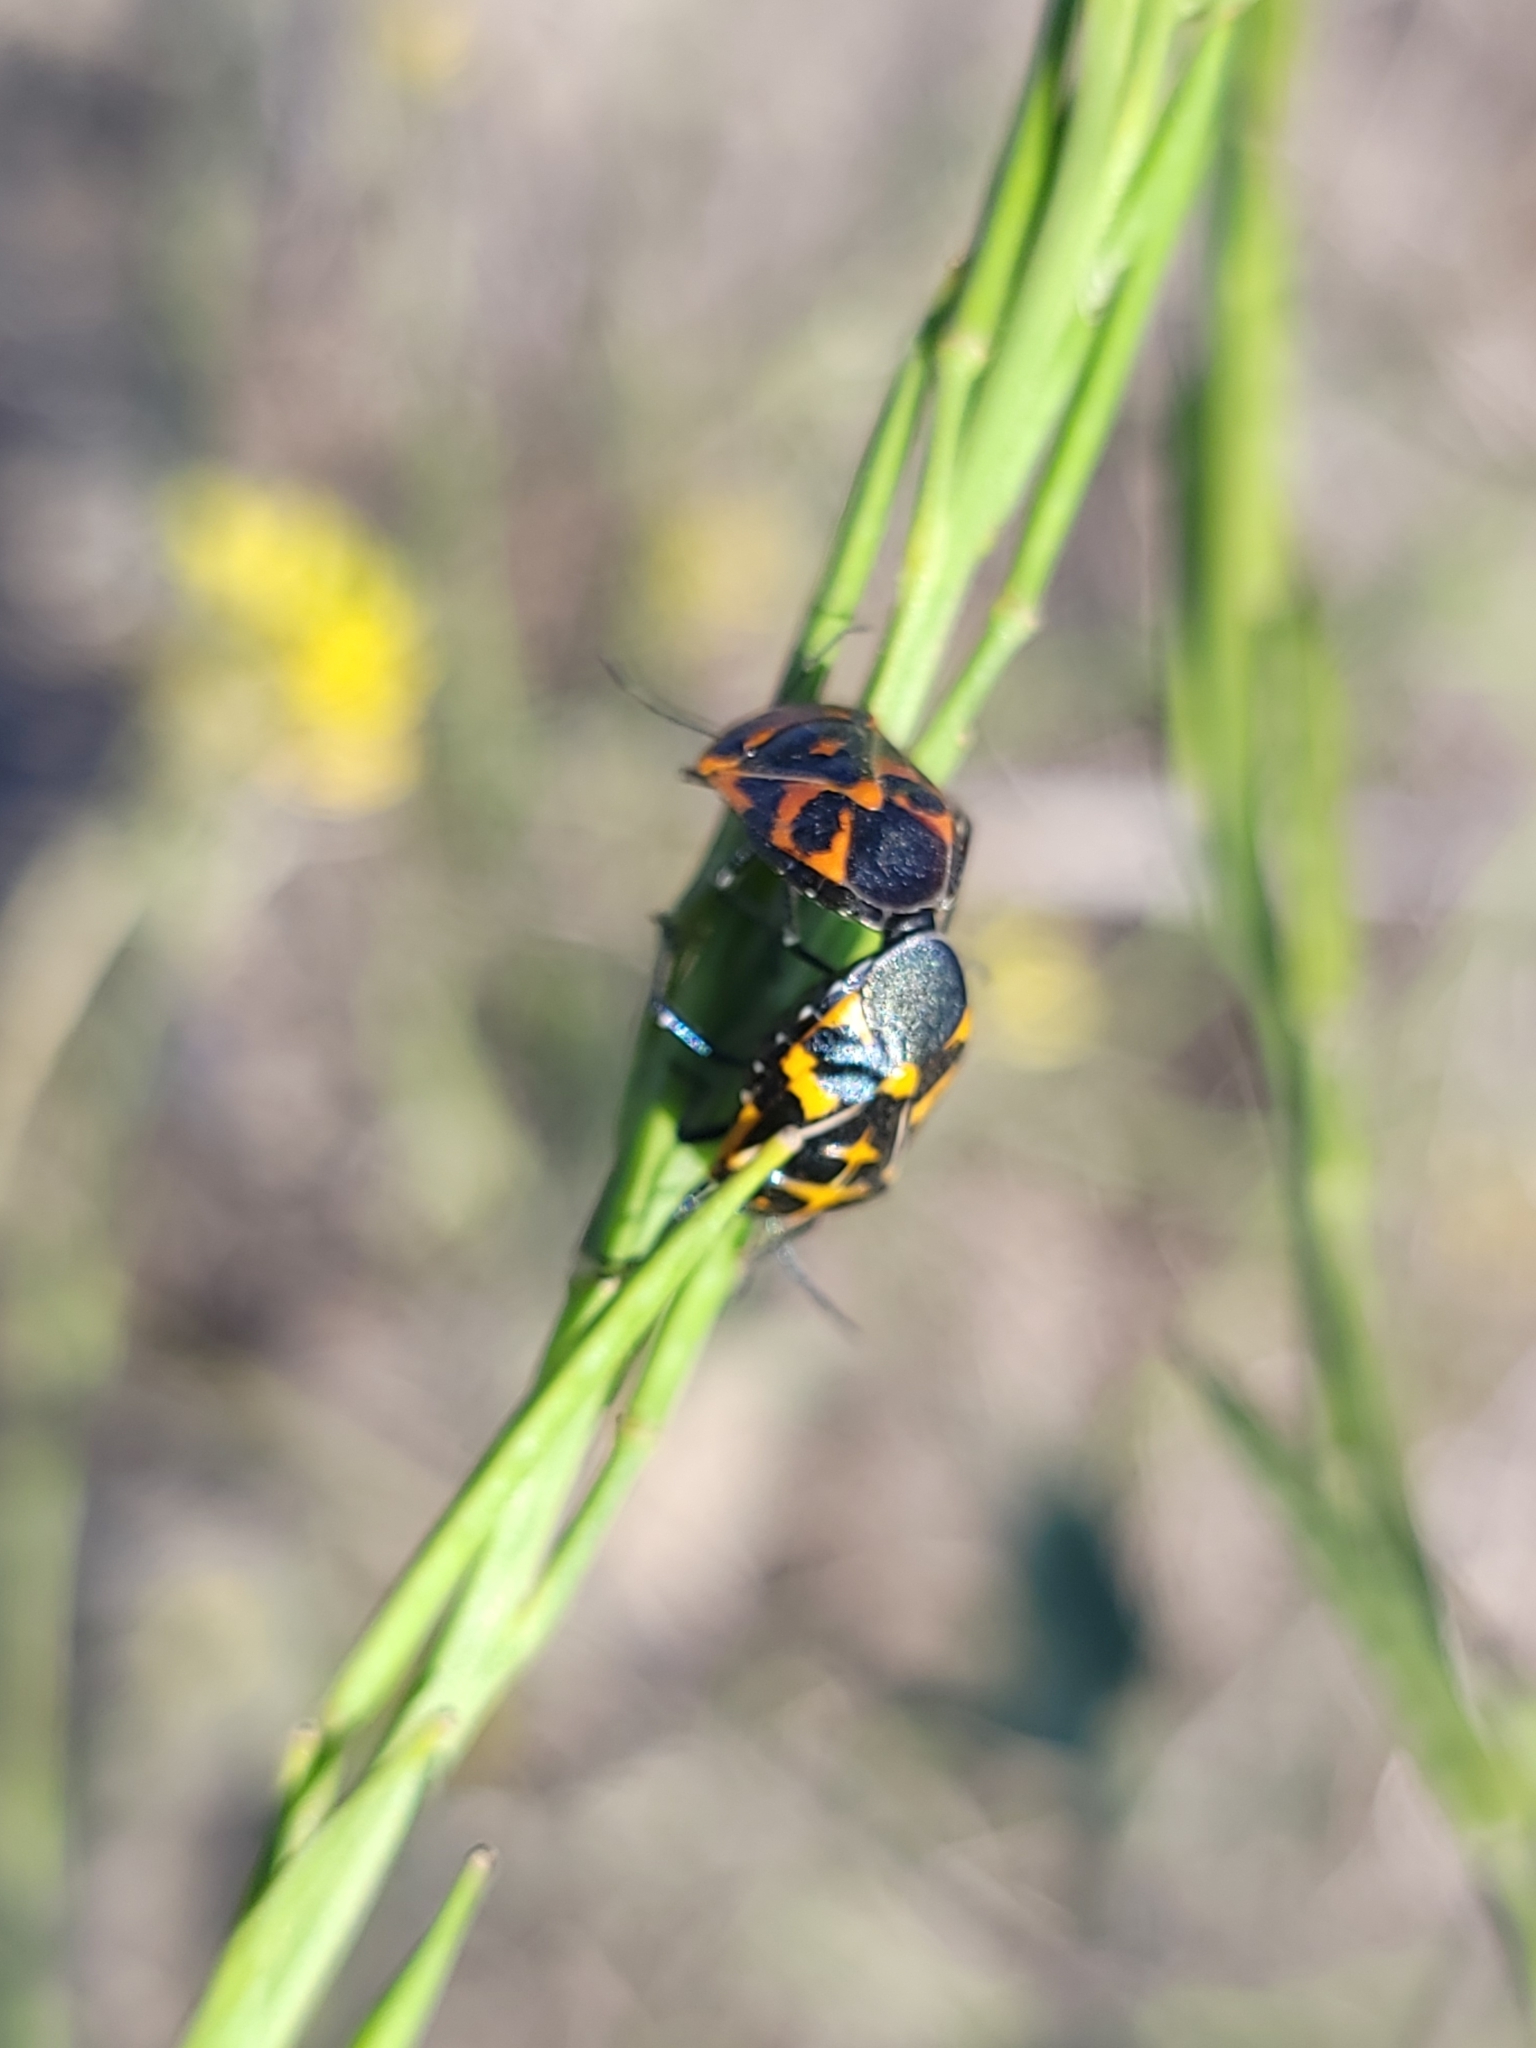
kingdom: Animalia
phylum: Arthropoda
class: Insecta
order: Hemiptera
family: Pentatomidae
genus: Murgantia
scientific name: Murgantia histrionica
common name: Harlequin bug
